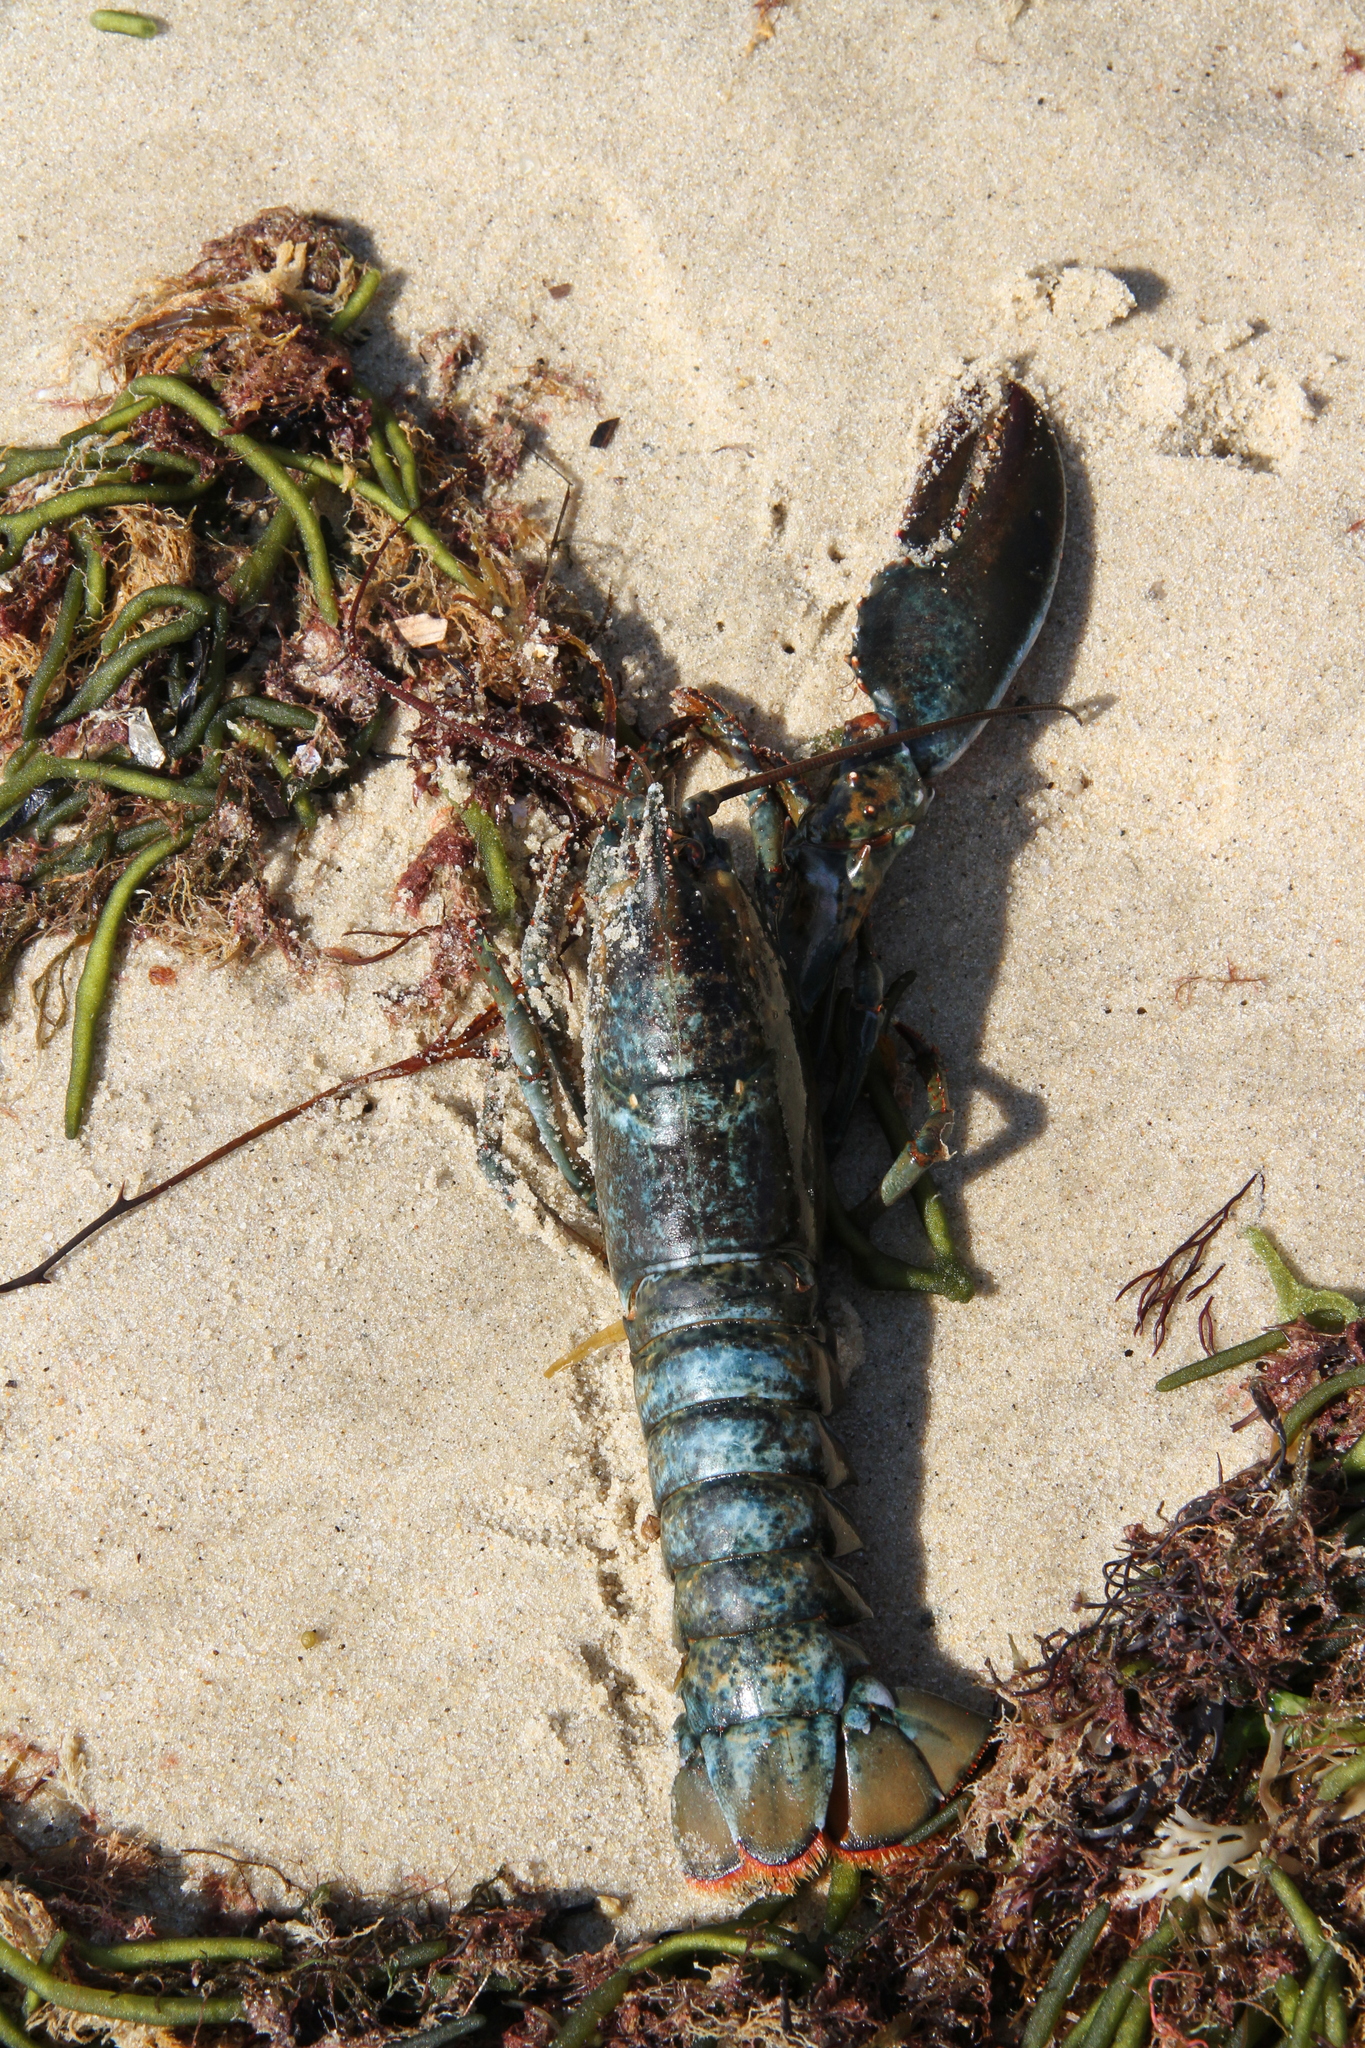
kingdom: Animalia
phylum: Arthropoda
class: Malacostraca
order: Decapoda
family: Nephropidae
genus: Homarus
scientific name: Homarus americanus
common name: American lobster
